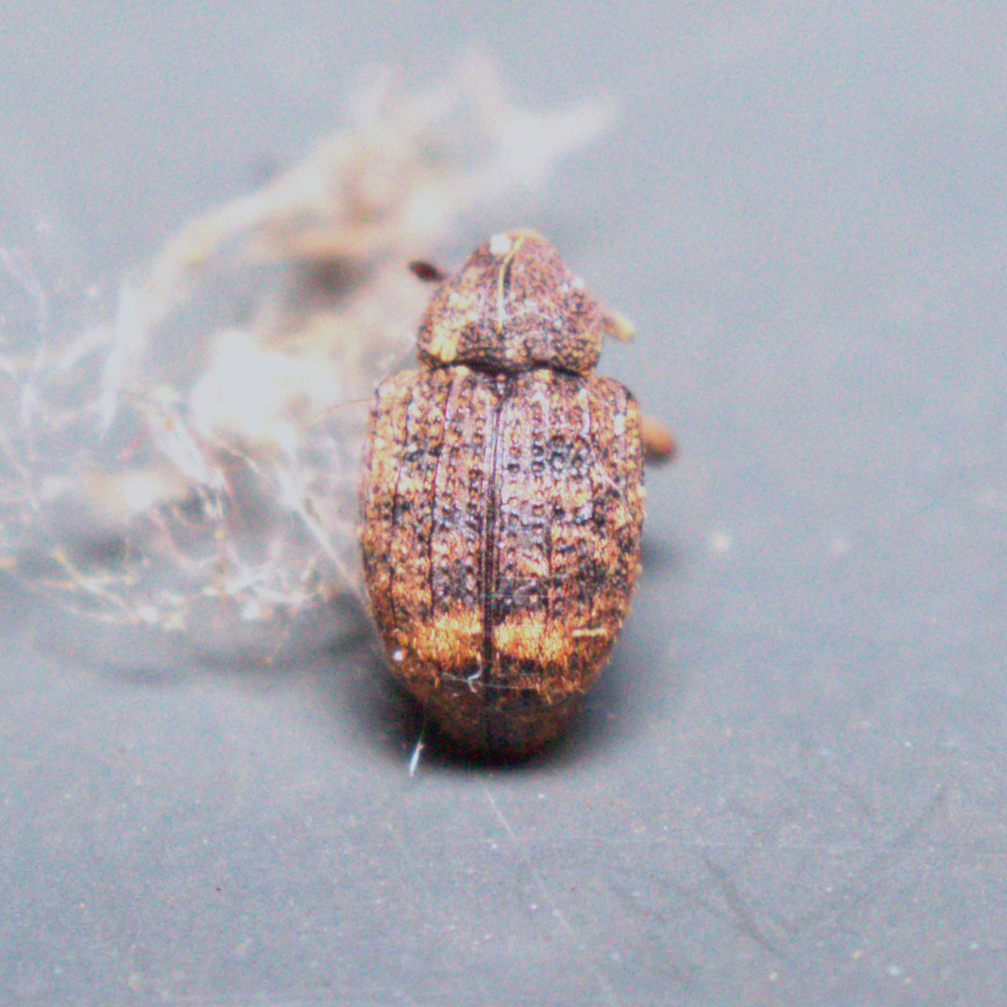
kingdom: Animalia
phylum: Arthropoda
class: Insecta
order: Coleoptera
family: Curculionidae
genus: Conotrachelus
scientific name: Conotrachelus posticatus
